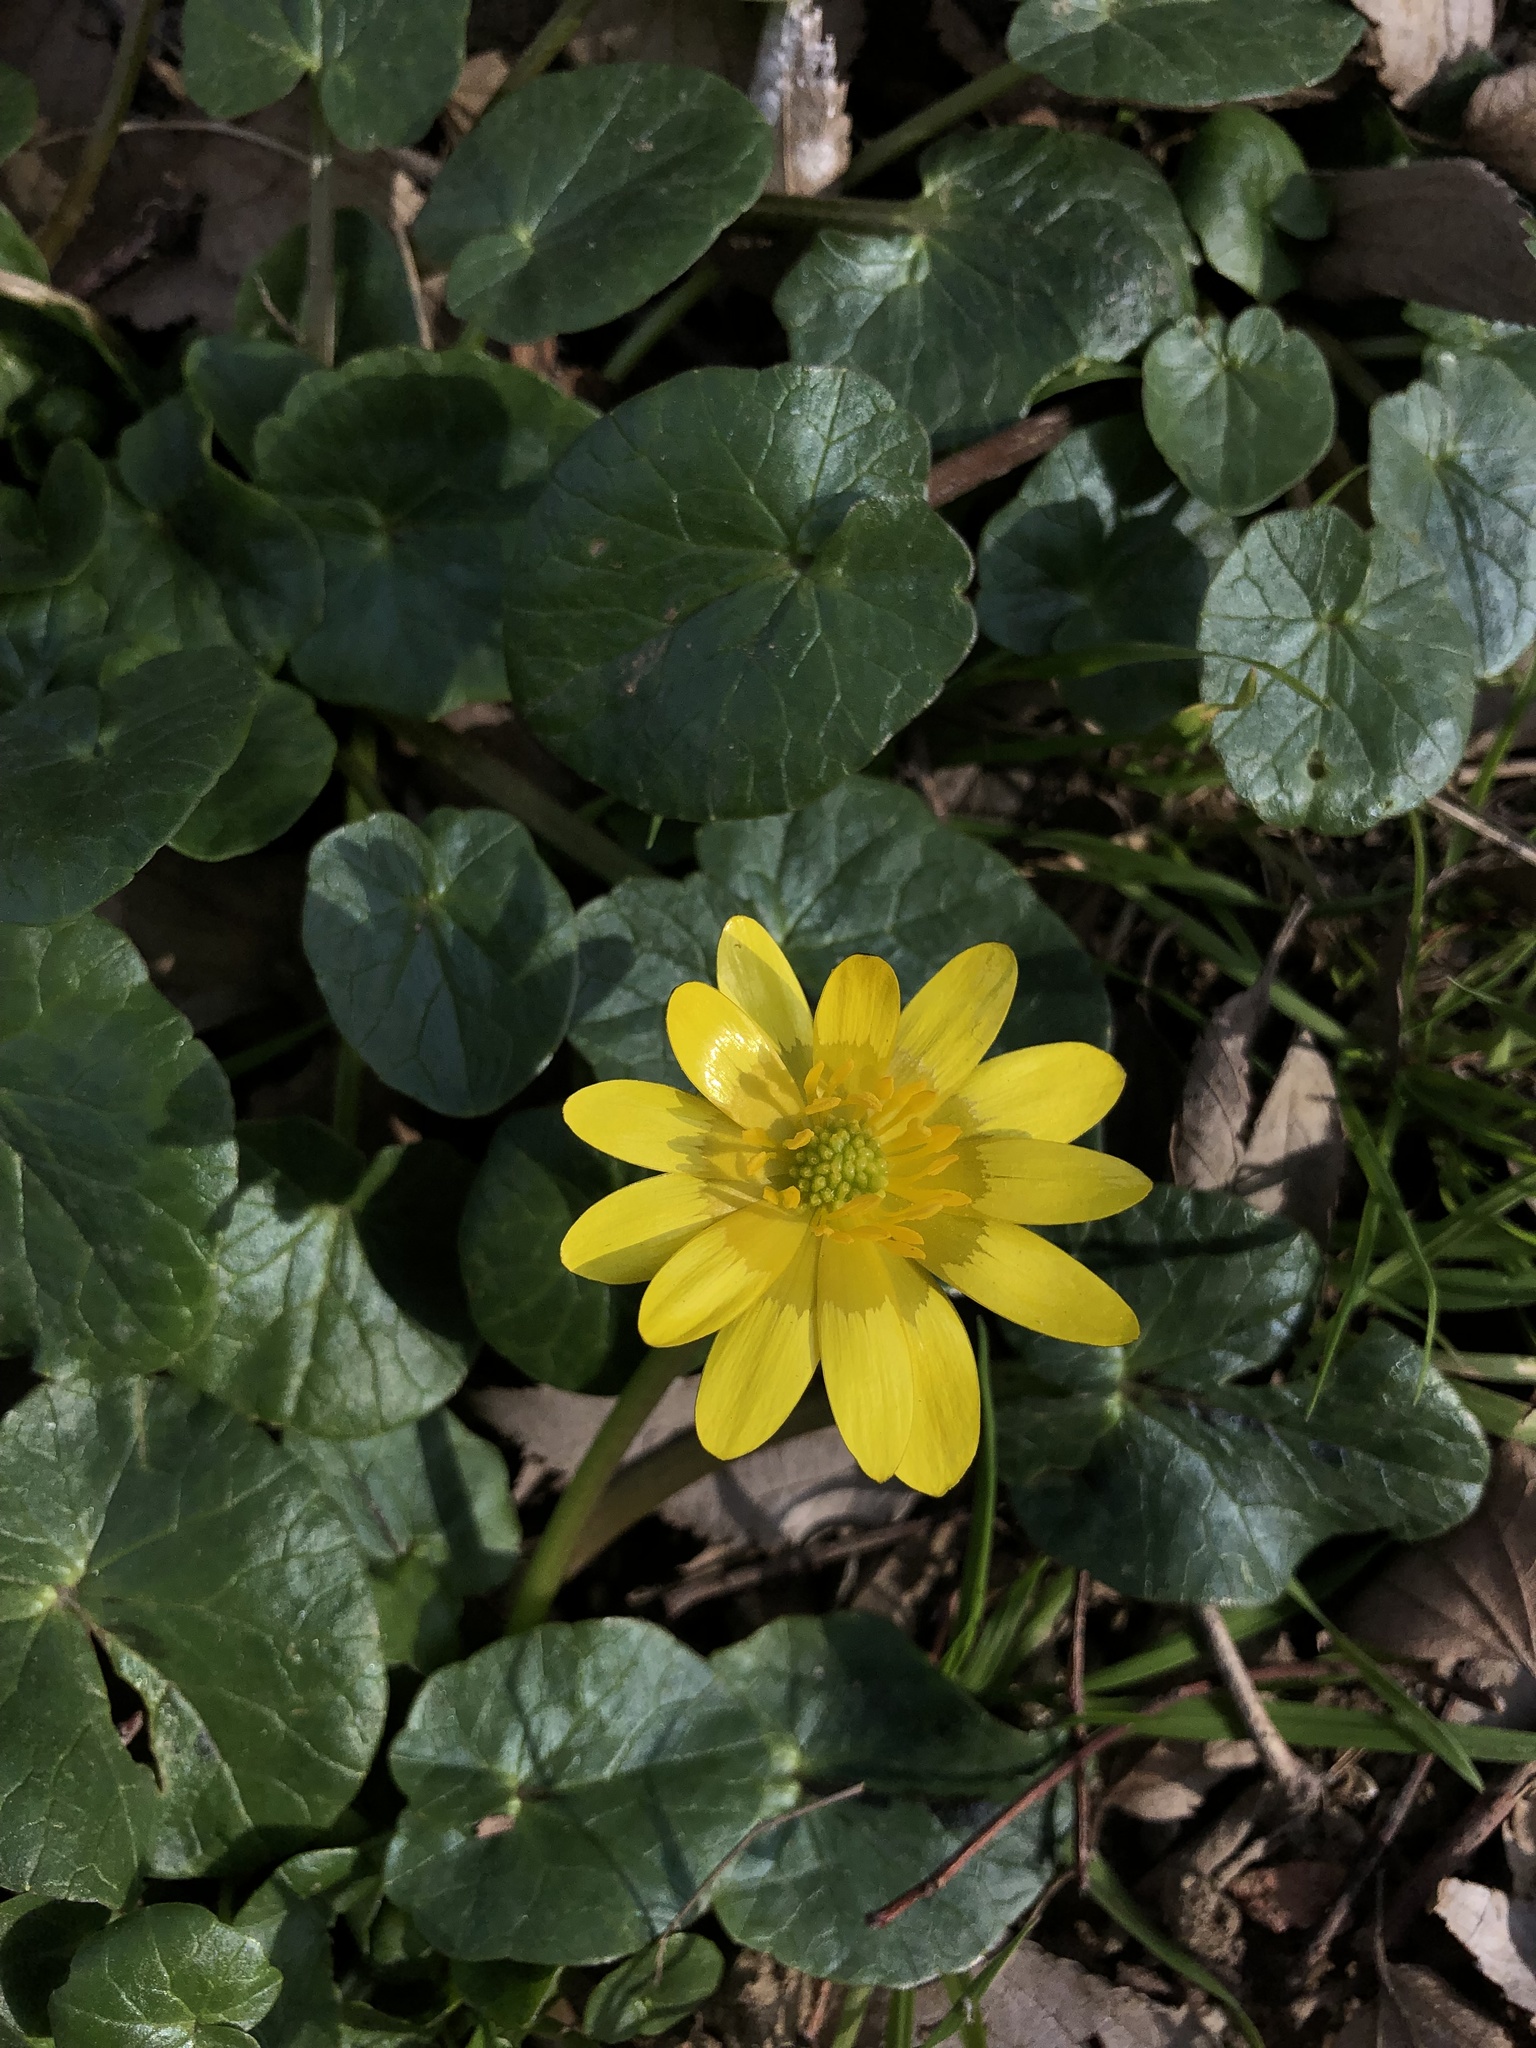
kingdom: Plantae
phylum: Tracheophyta
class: Magnoliopsida
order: Ranunculales
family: Ranunculaceae
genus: Ficaria
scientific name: Ficaria verna
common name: Lesser celandine
